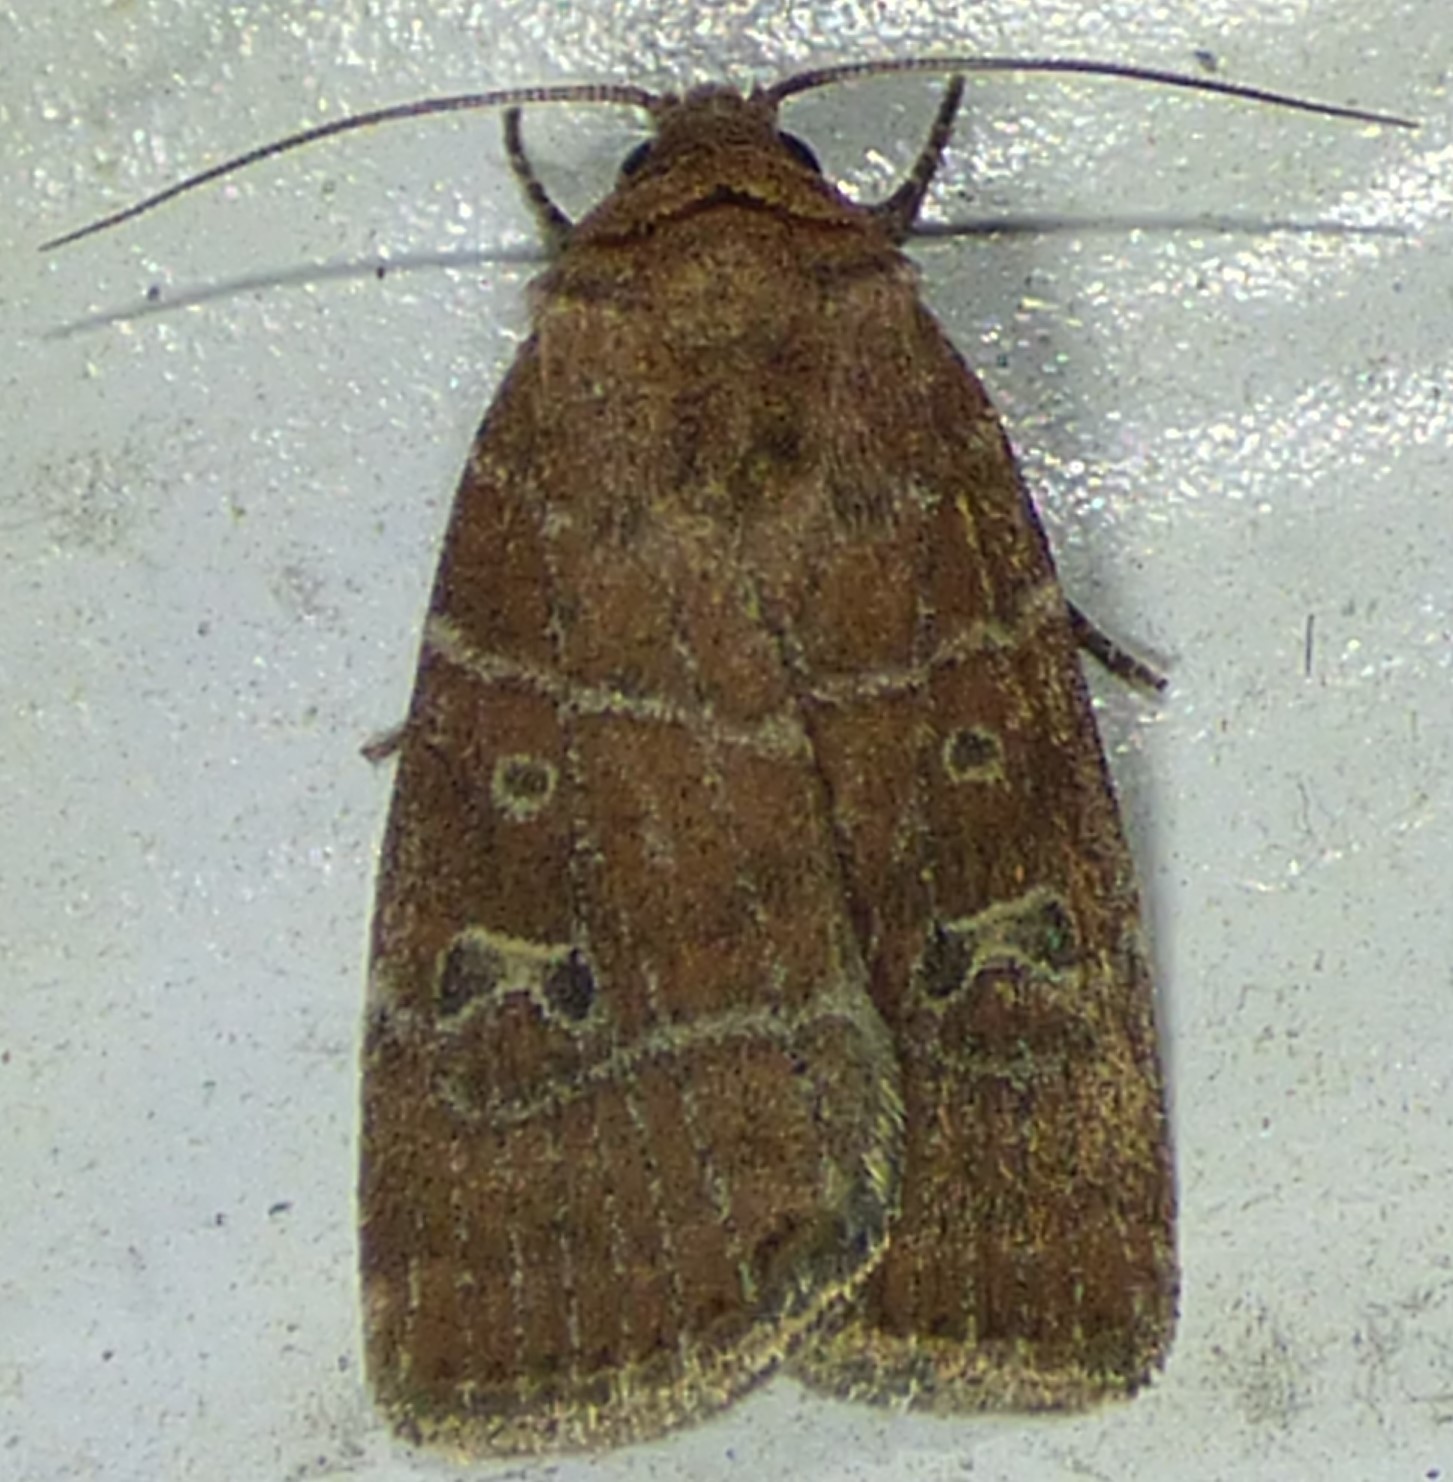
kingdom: Animalia
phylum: Arthropoda
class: Insecta
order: Lepidoptera
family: Noctuidae
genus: Elaphria
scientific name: Elaphria grata
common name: Grateful midget moth
